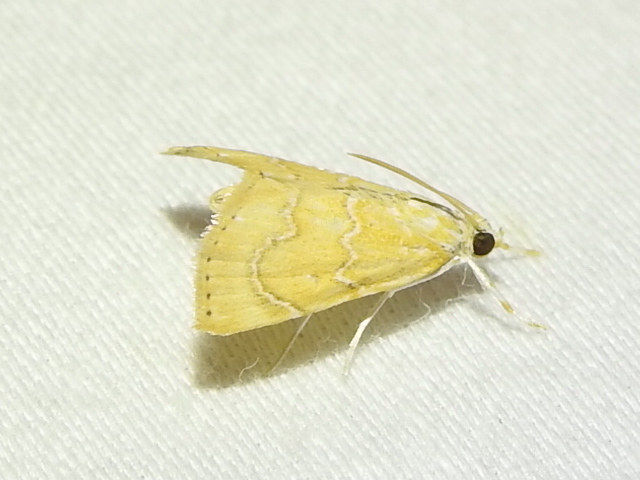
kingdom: Animalia
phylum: Arthropoda
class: Insecta
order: Lepidoptera
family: Crambidae
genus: Glaphyria
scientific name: Glaphyria sesquistrialis
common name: White-roped glaphyria
